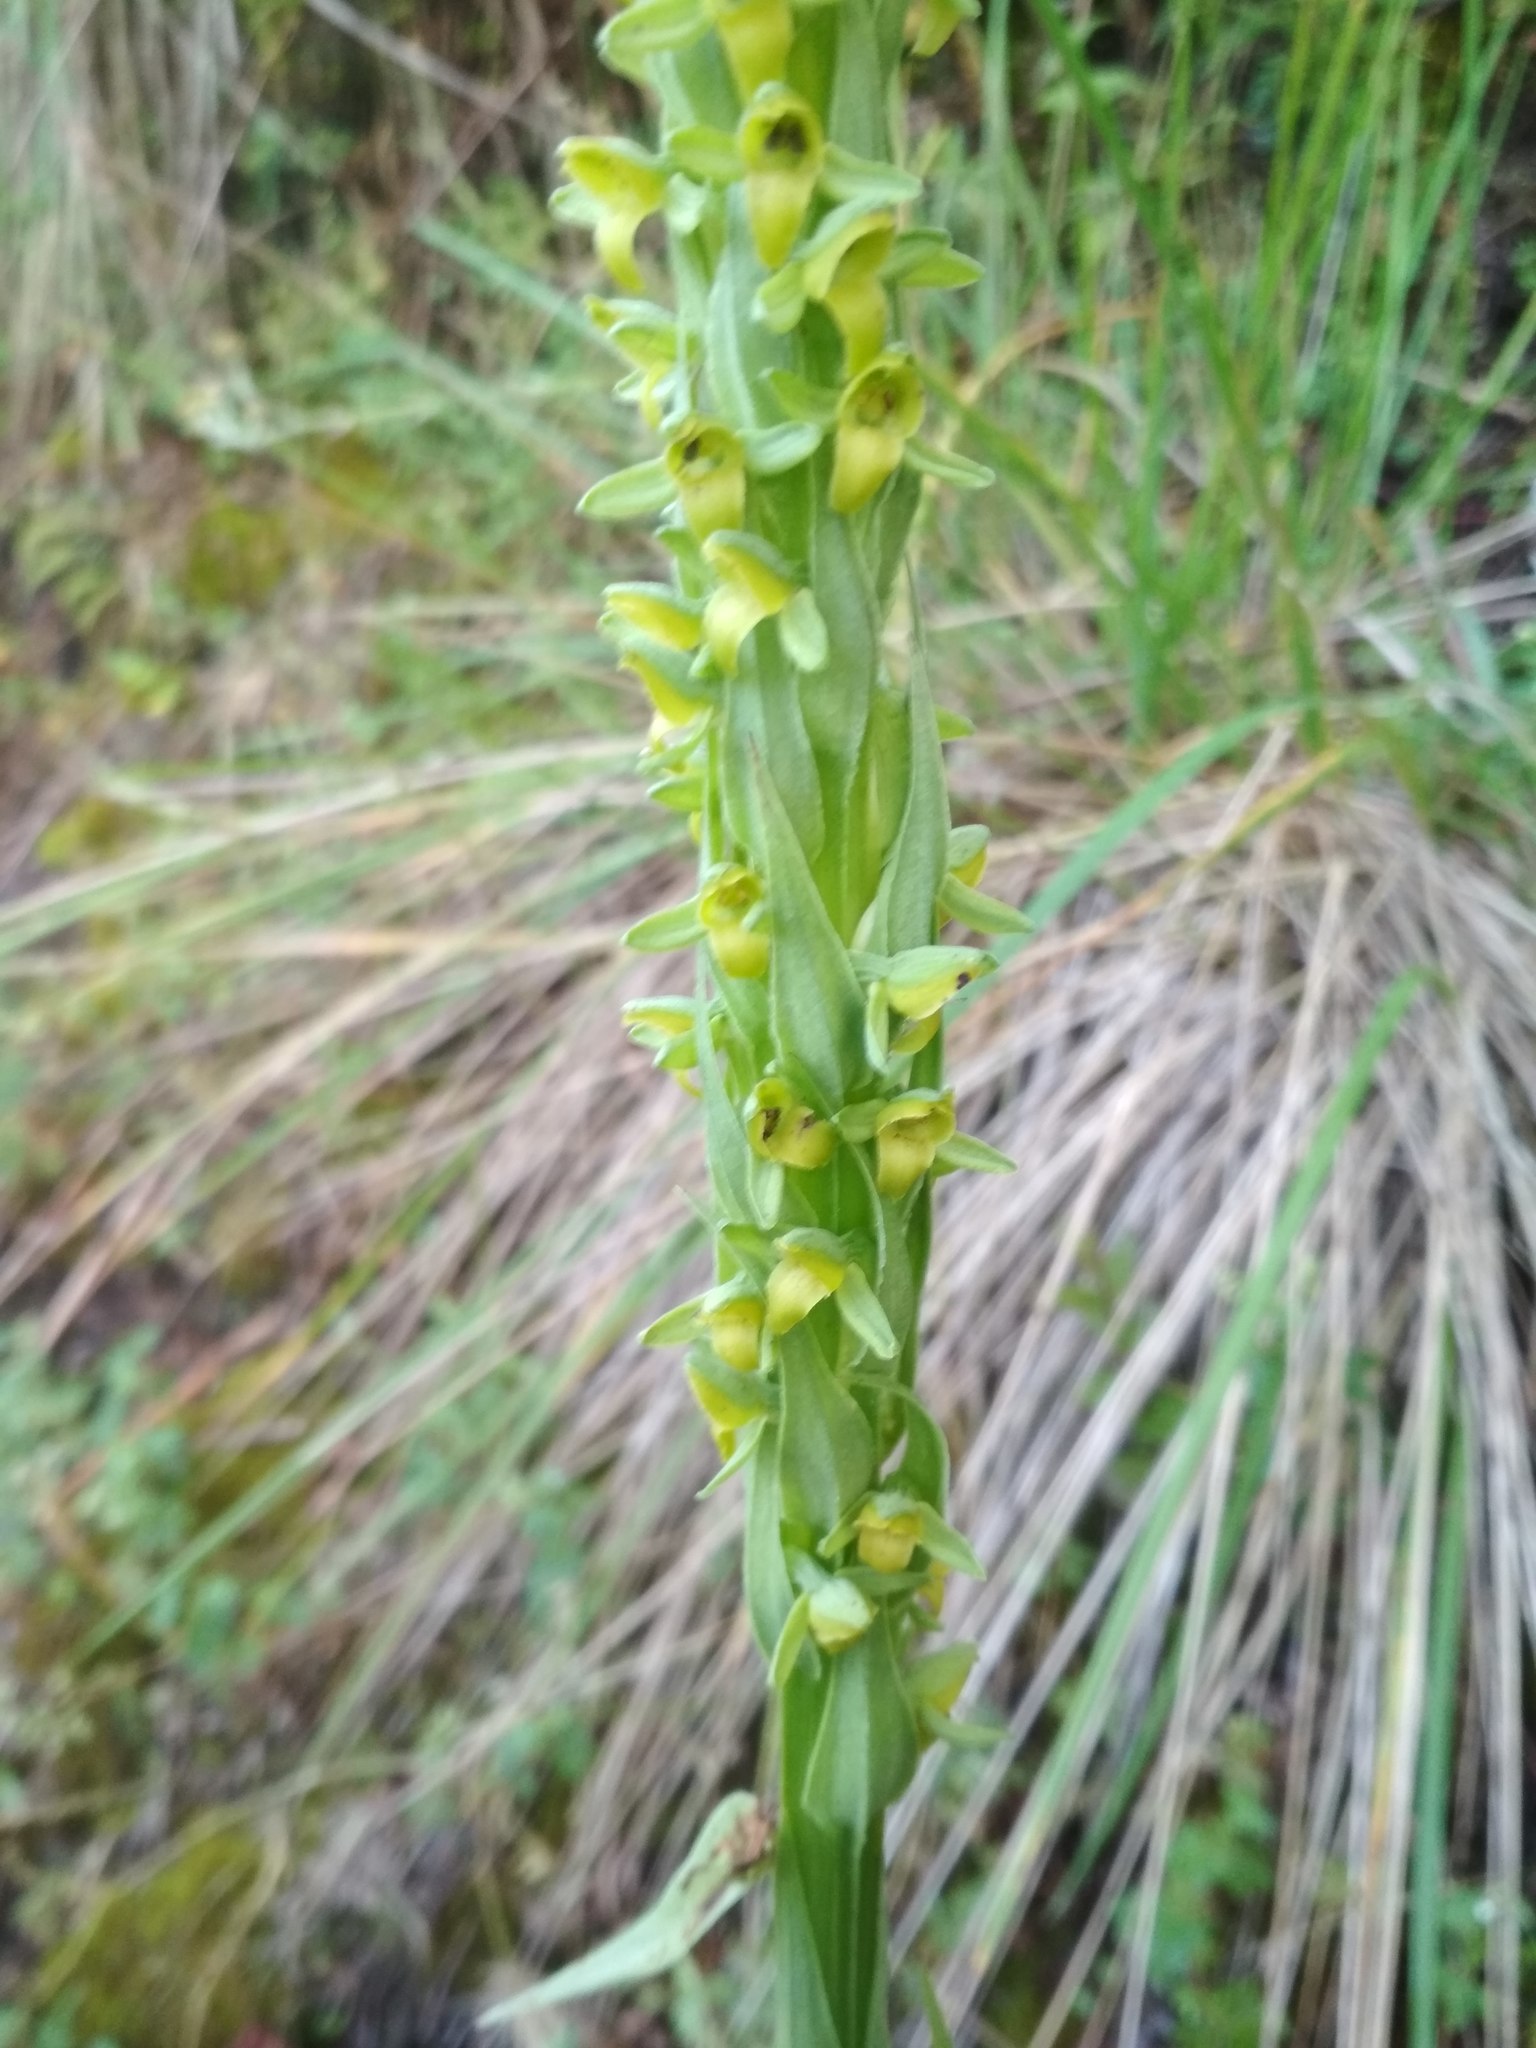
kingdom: Plantae
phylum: Tracheophyta
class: Liliopsida
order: Asparagales
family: Orchidaceae
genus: Coenoemersa
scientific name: Coenoemersa volcanica
